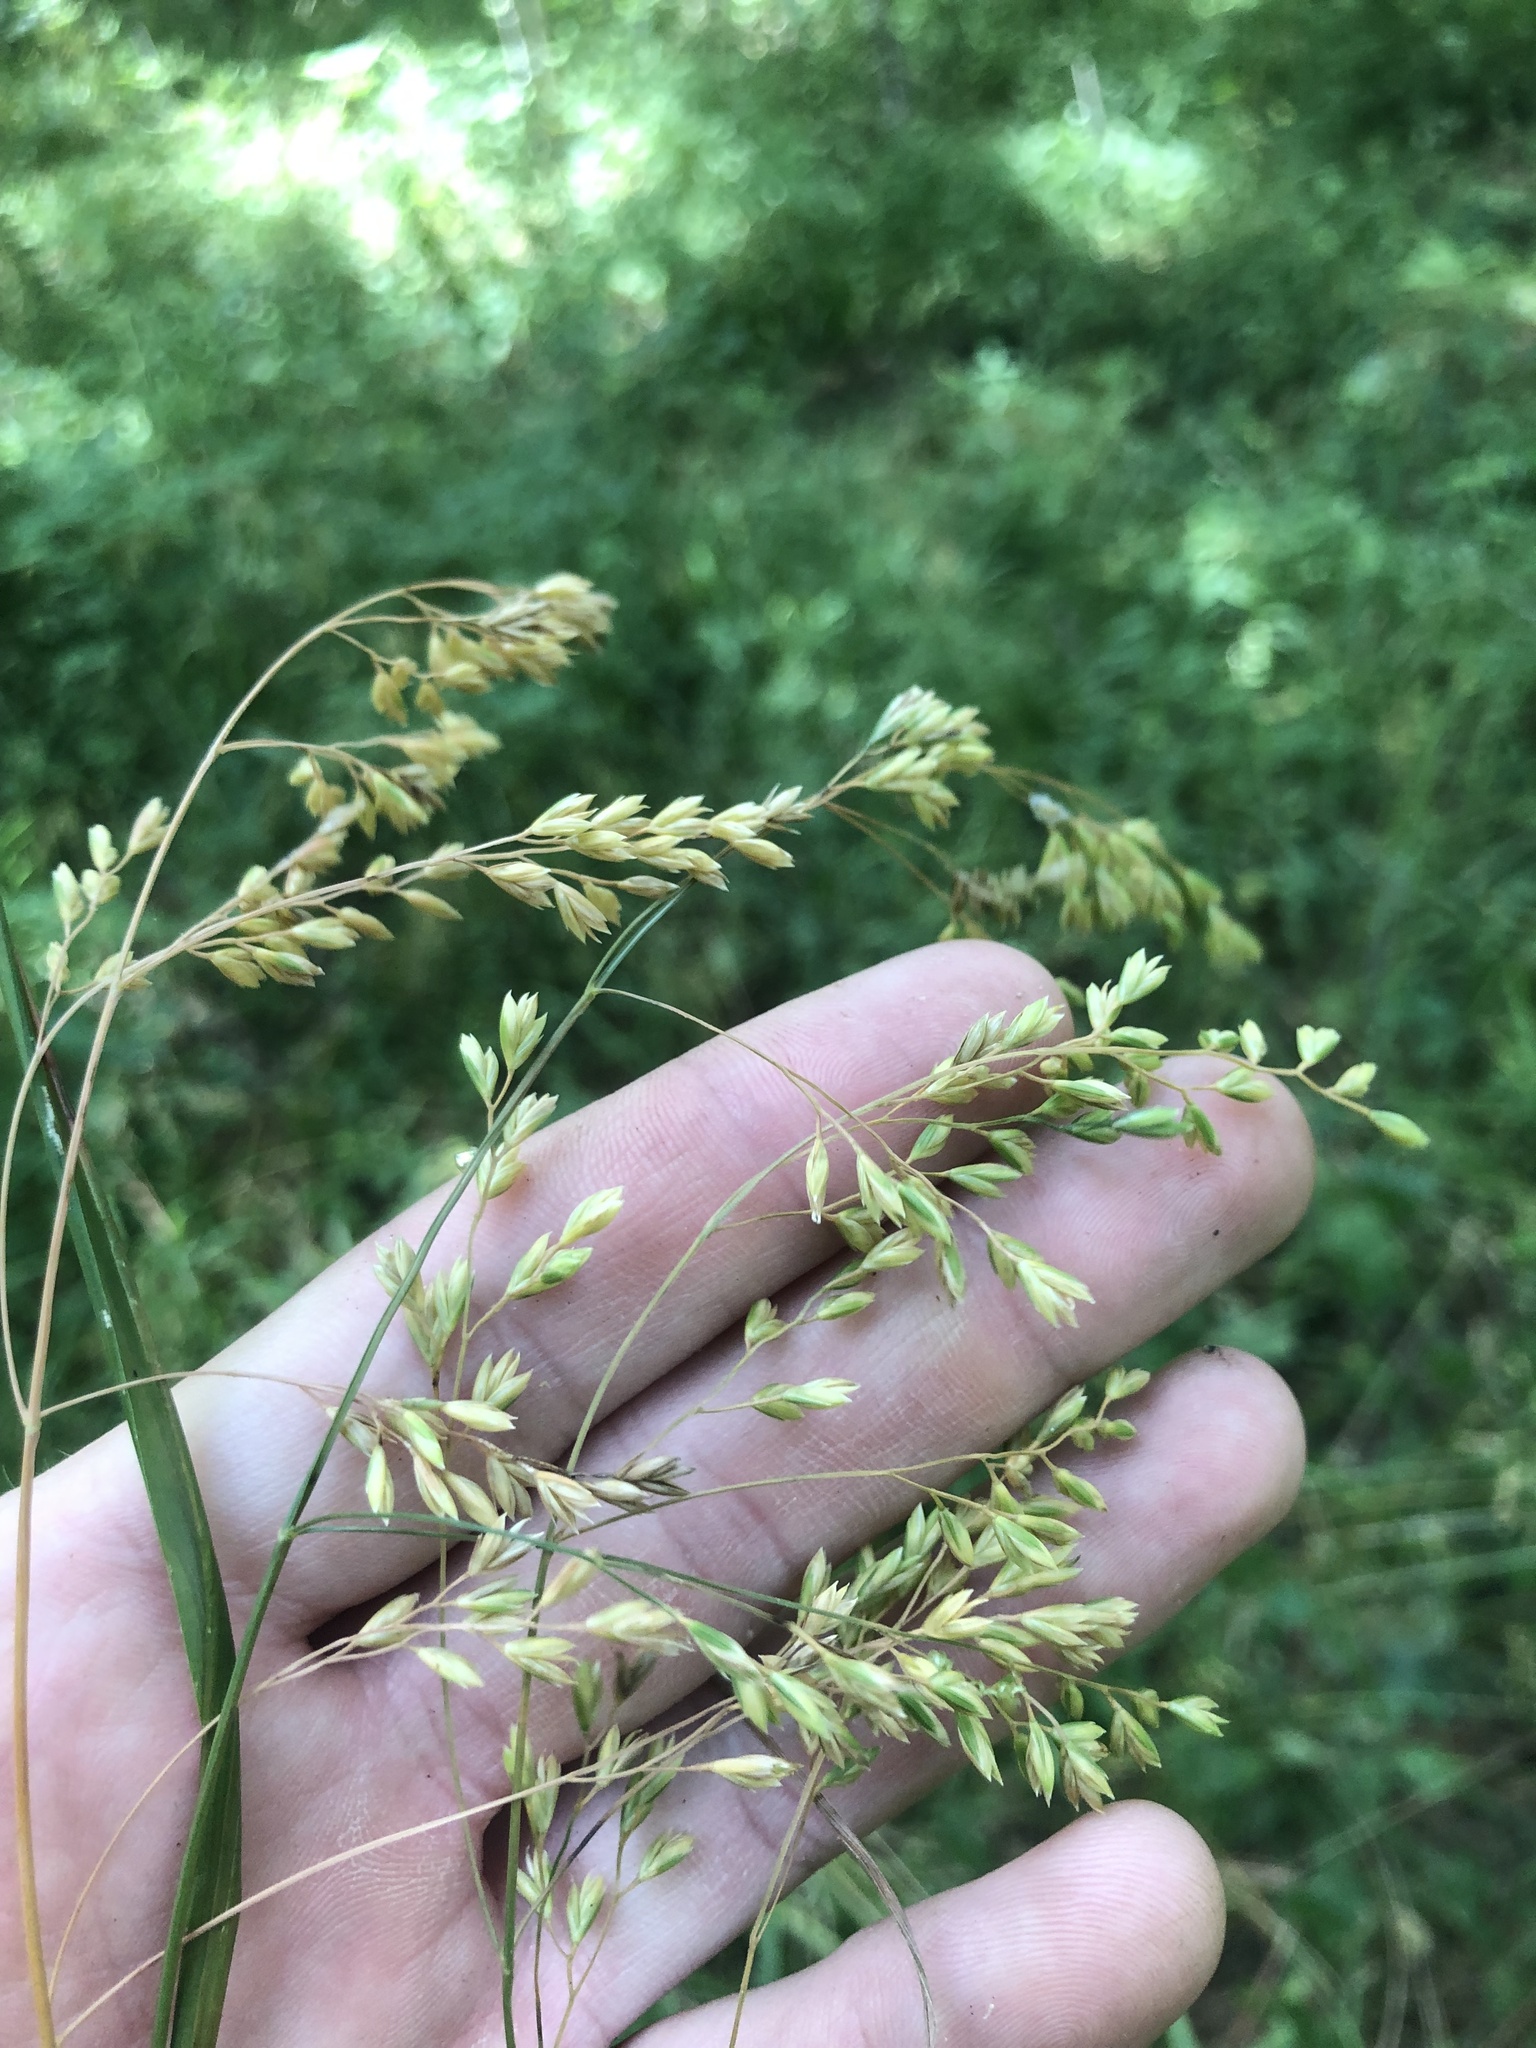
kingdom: Plantae
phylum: Tracheophyta
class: Liliopsida
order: Poales
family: Poaceae
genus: Festuca
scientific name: Festuca paradoxa
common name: Cluster fescue
